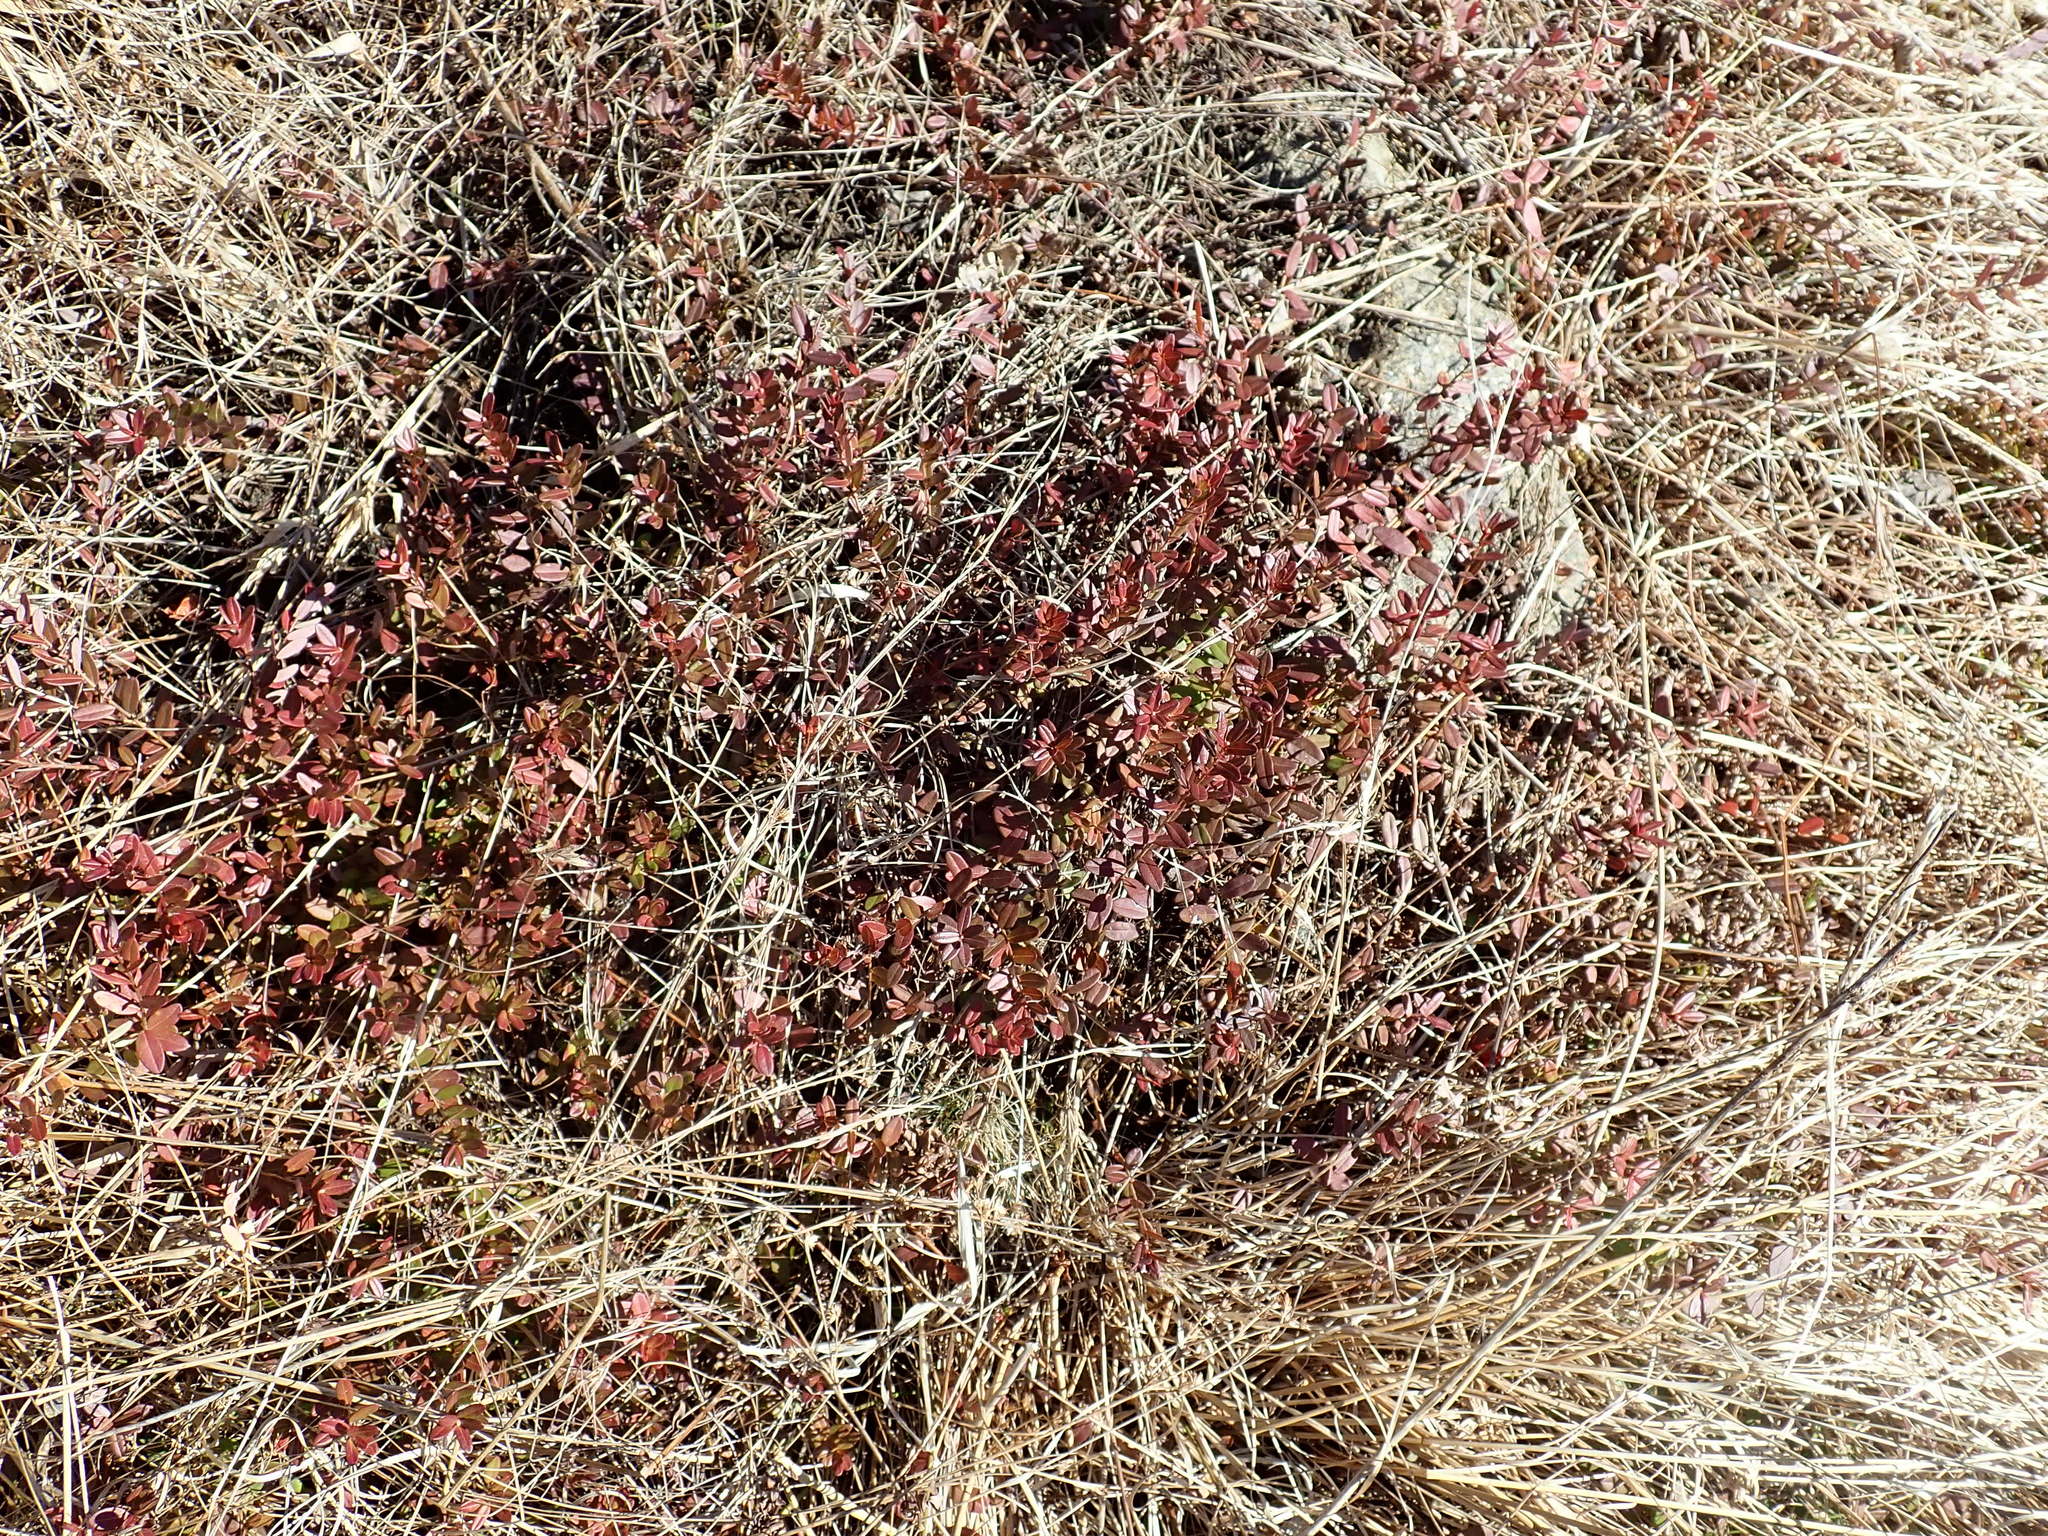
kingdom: Plantae
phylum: Tracheophyta
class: Magnoliopsida
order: Ericales
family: Ericaceae
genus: Vaccinium
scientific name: Vaccinium macrocarpon
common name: American cranberry
